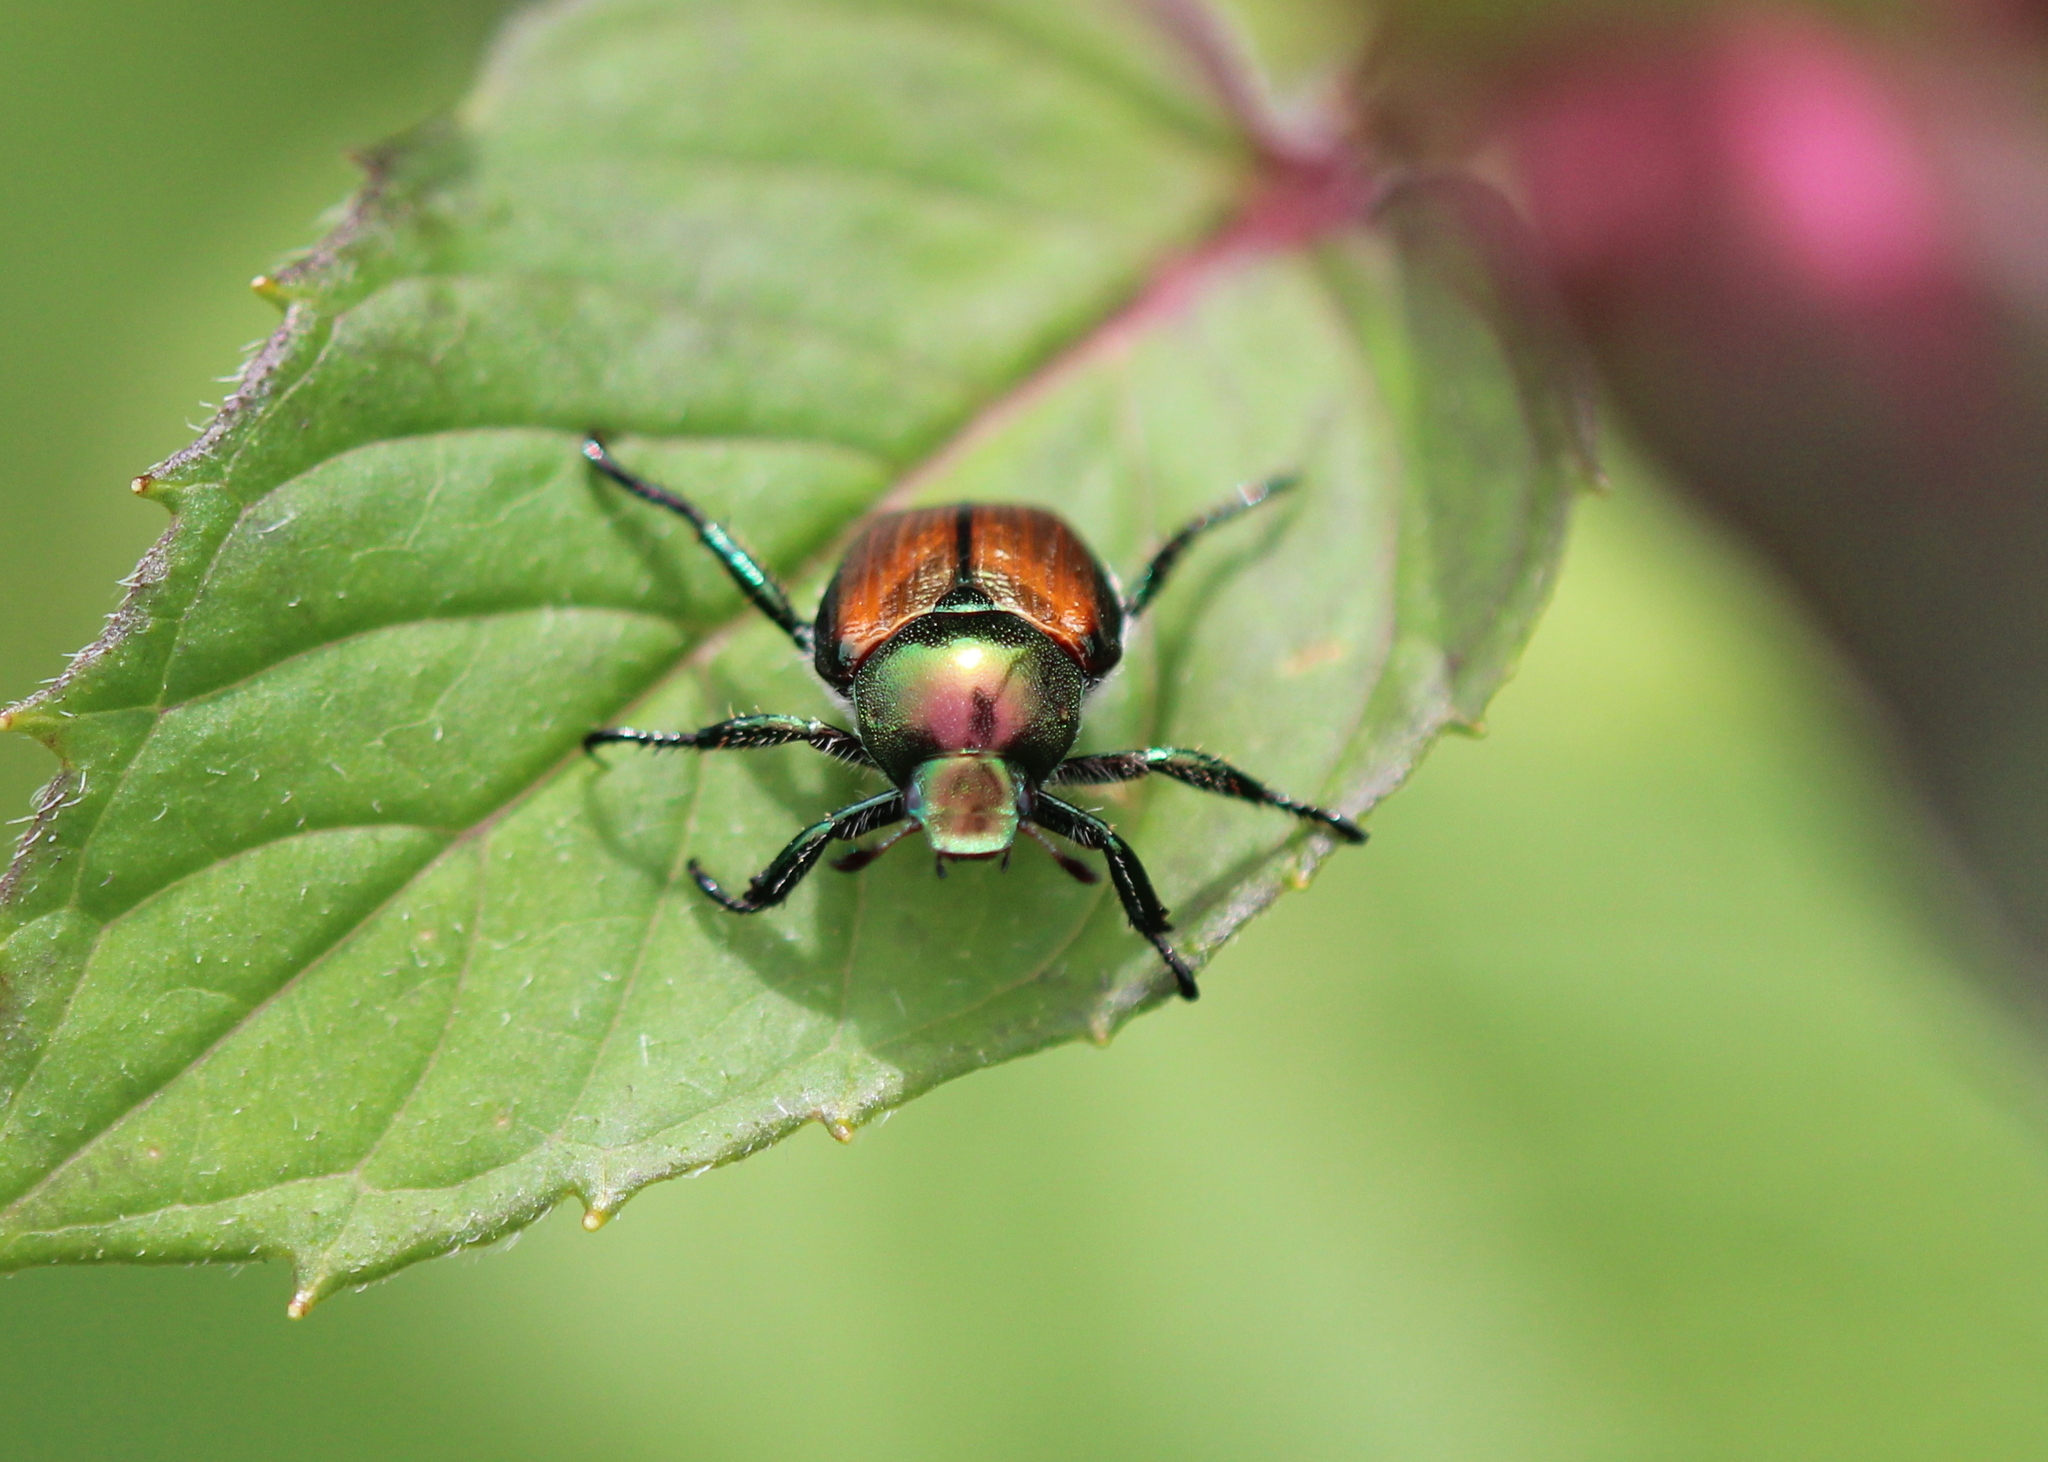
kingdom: Animalia
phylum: Arthropoda
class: Insecta
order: Coleoptera
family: Scarabaeidae
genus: Popillia
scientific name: Popillia japonica
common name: Japanese beetle
